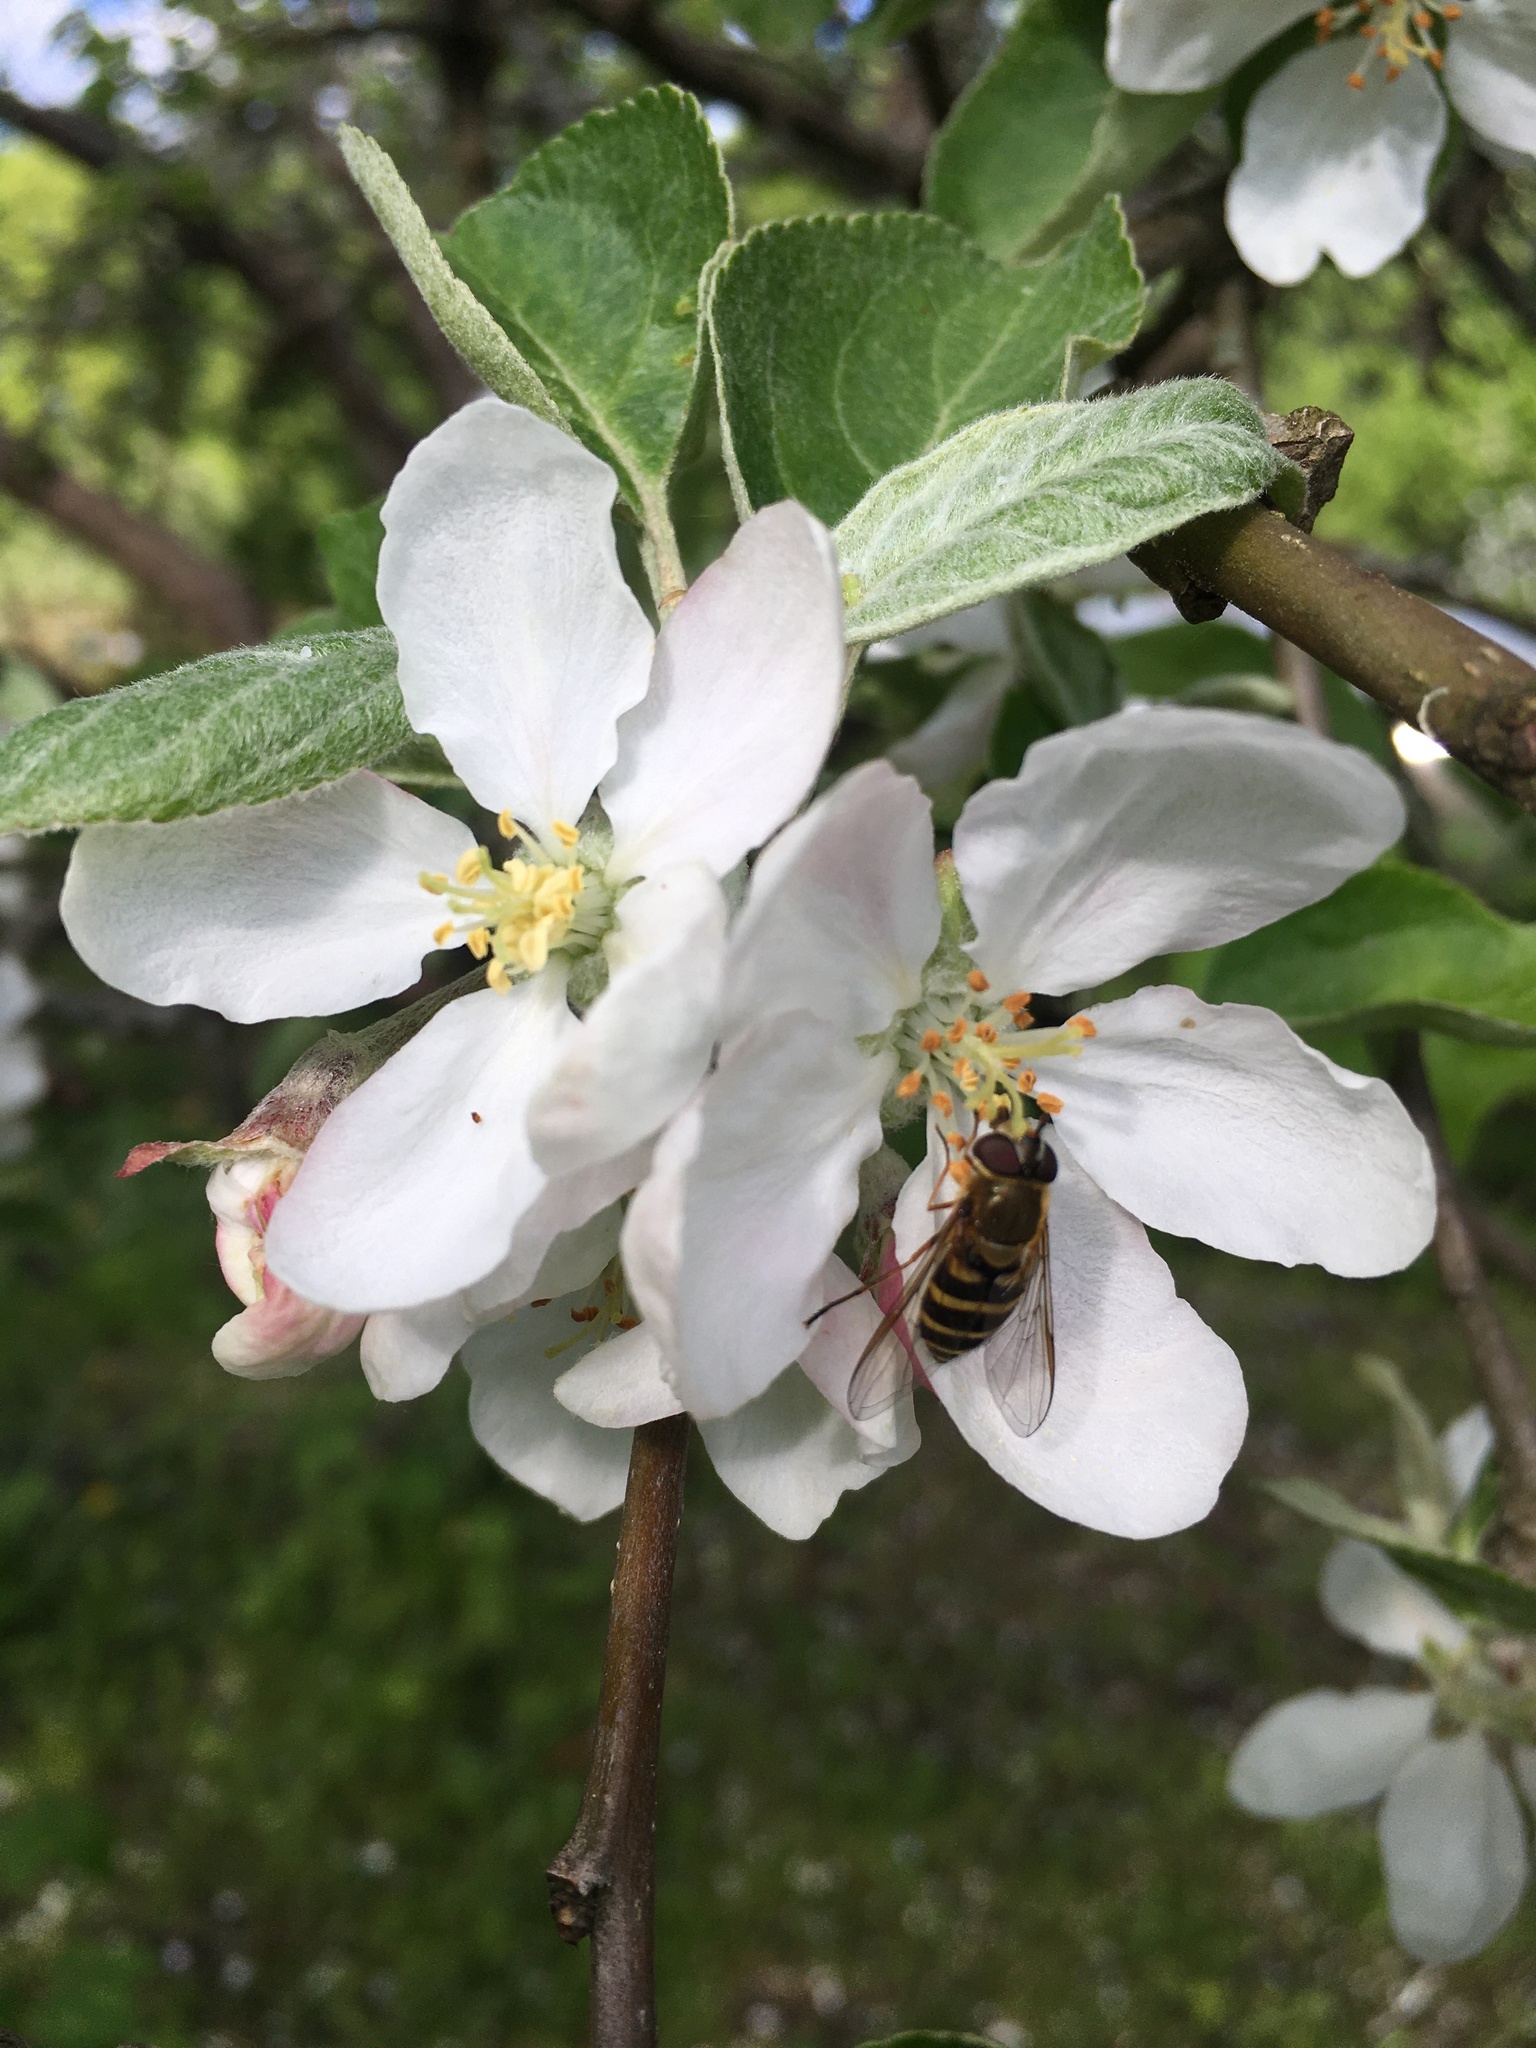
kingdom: Animalia
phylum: Arthropoda
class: Insecta
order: Diptera
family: Syrphidae
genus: Syrphus
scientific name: Syrphus
